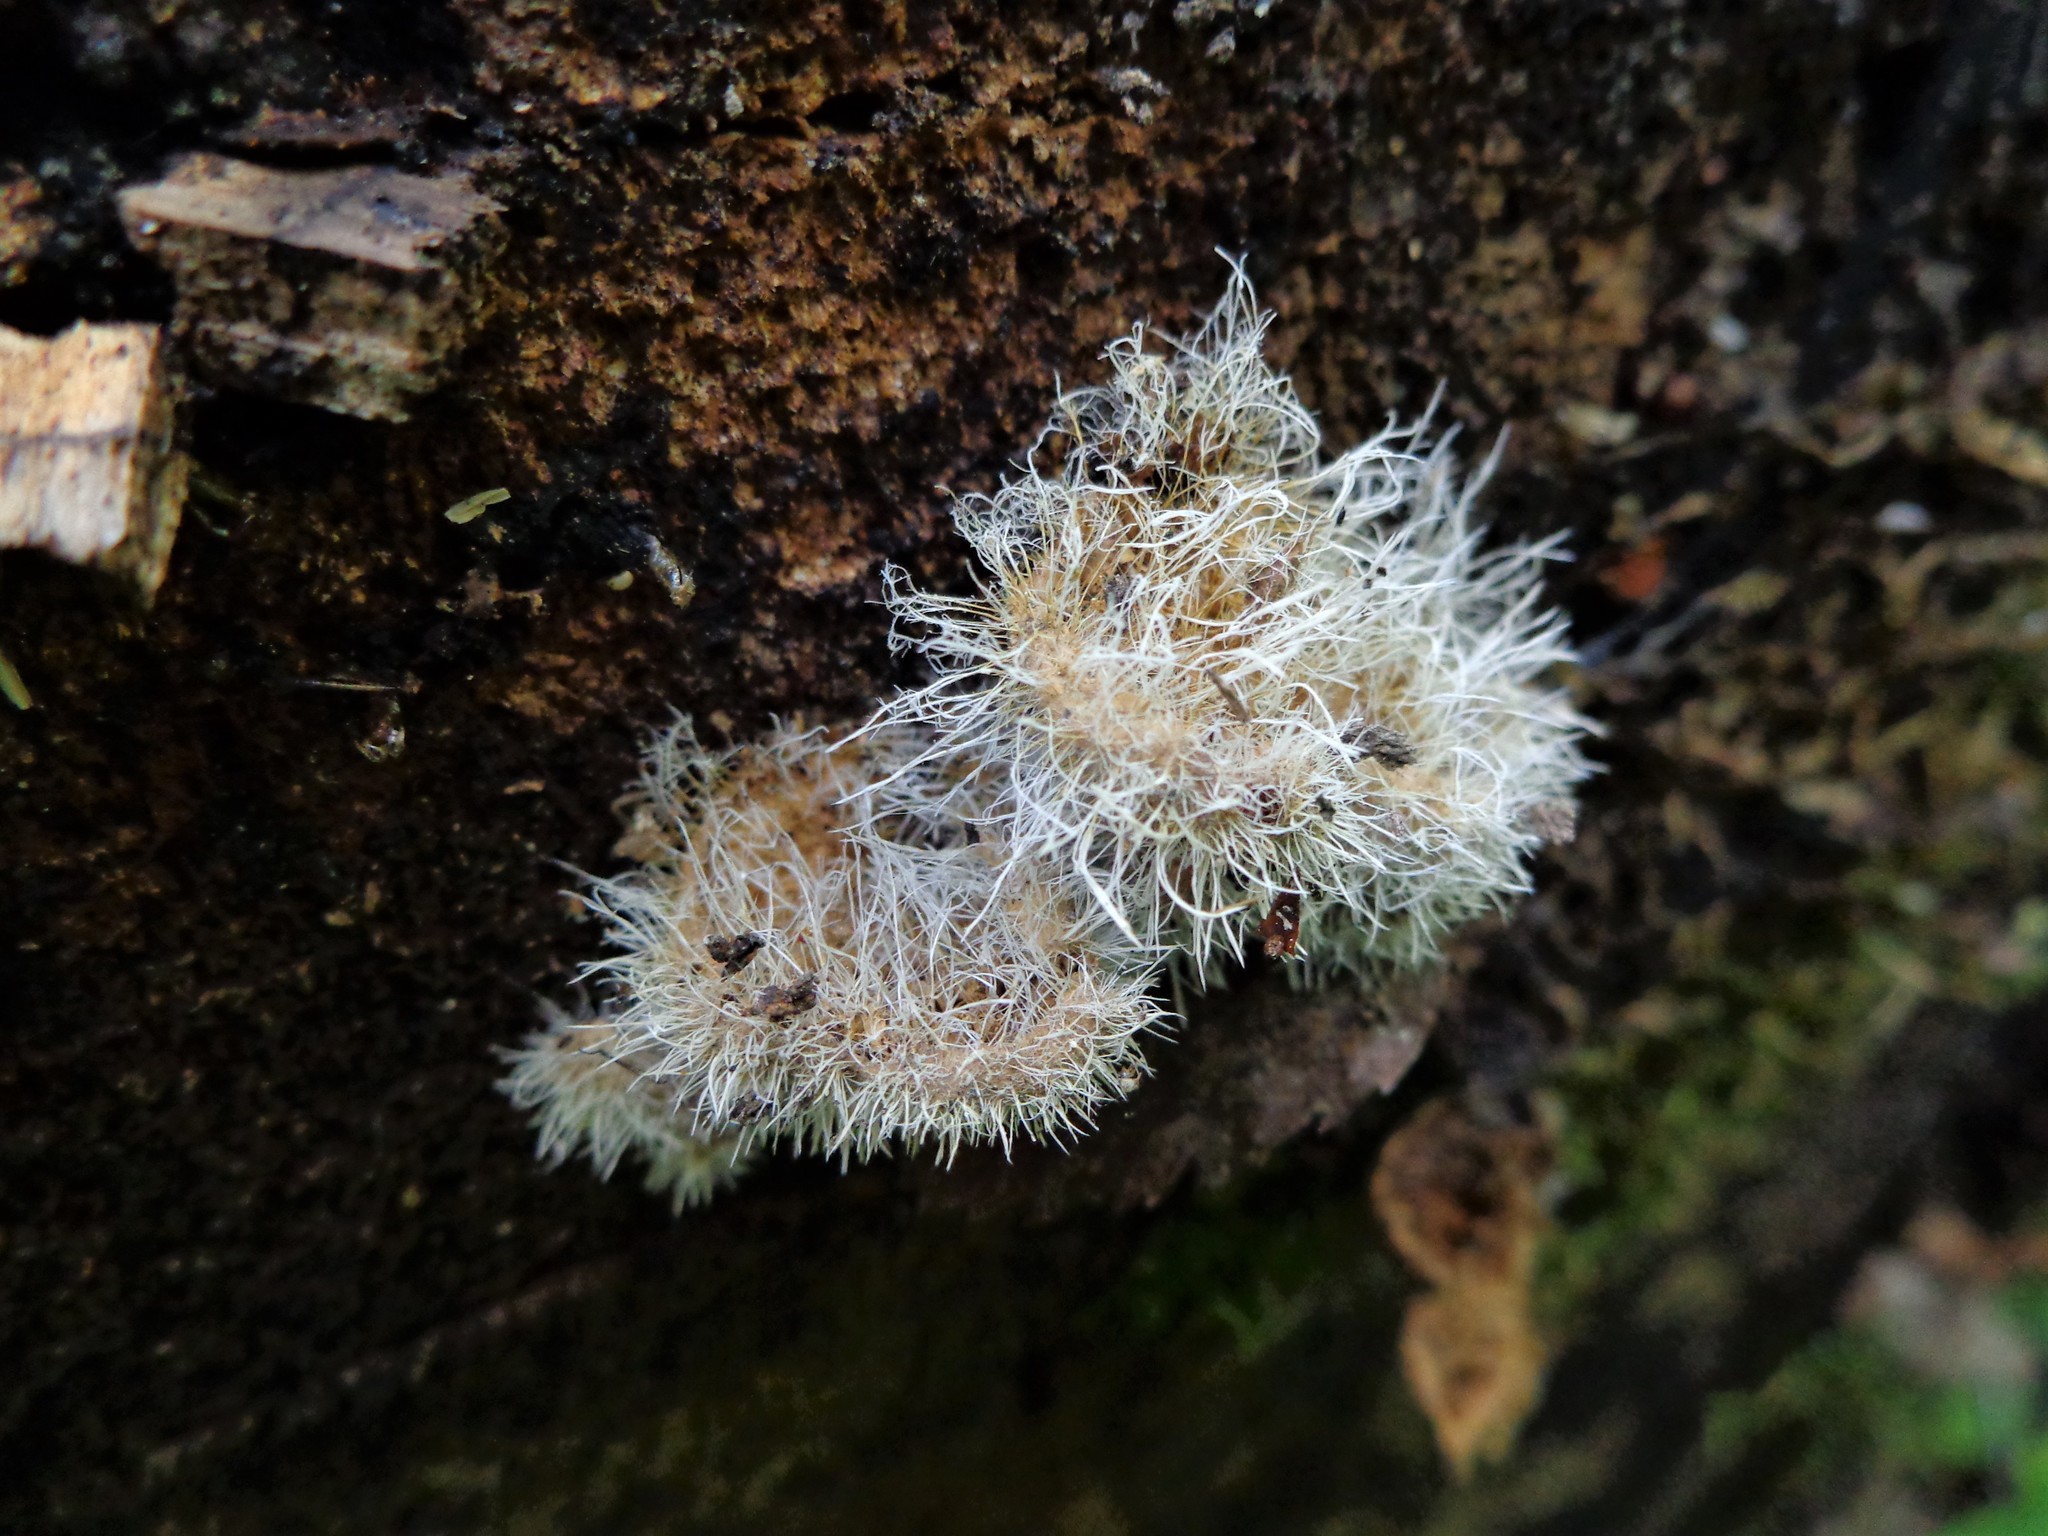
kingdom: Fungi
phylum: Ascomycota
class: Sordariomycetes
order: Hypocreales
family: Tilachlidiaceae
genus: Tilachlidium
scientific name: Tilachlidium brachiatum
